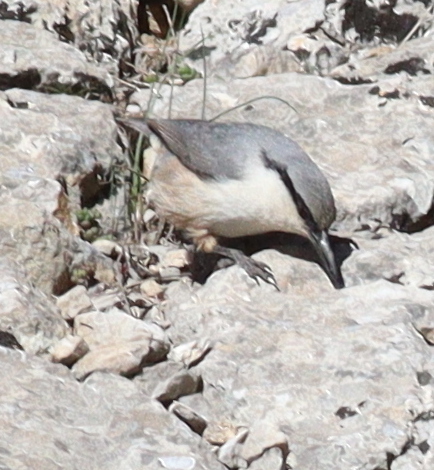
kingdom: Animalia
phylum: Chordata
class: Aves
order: Passeriformes
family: Sittidae
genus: Sitta
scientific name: Sitta neumayer
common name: Western rock nuthatch
